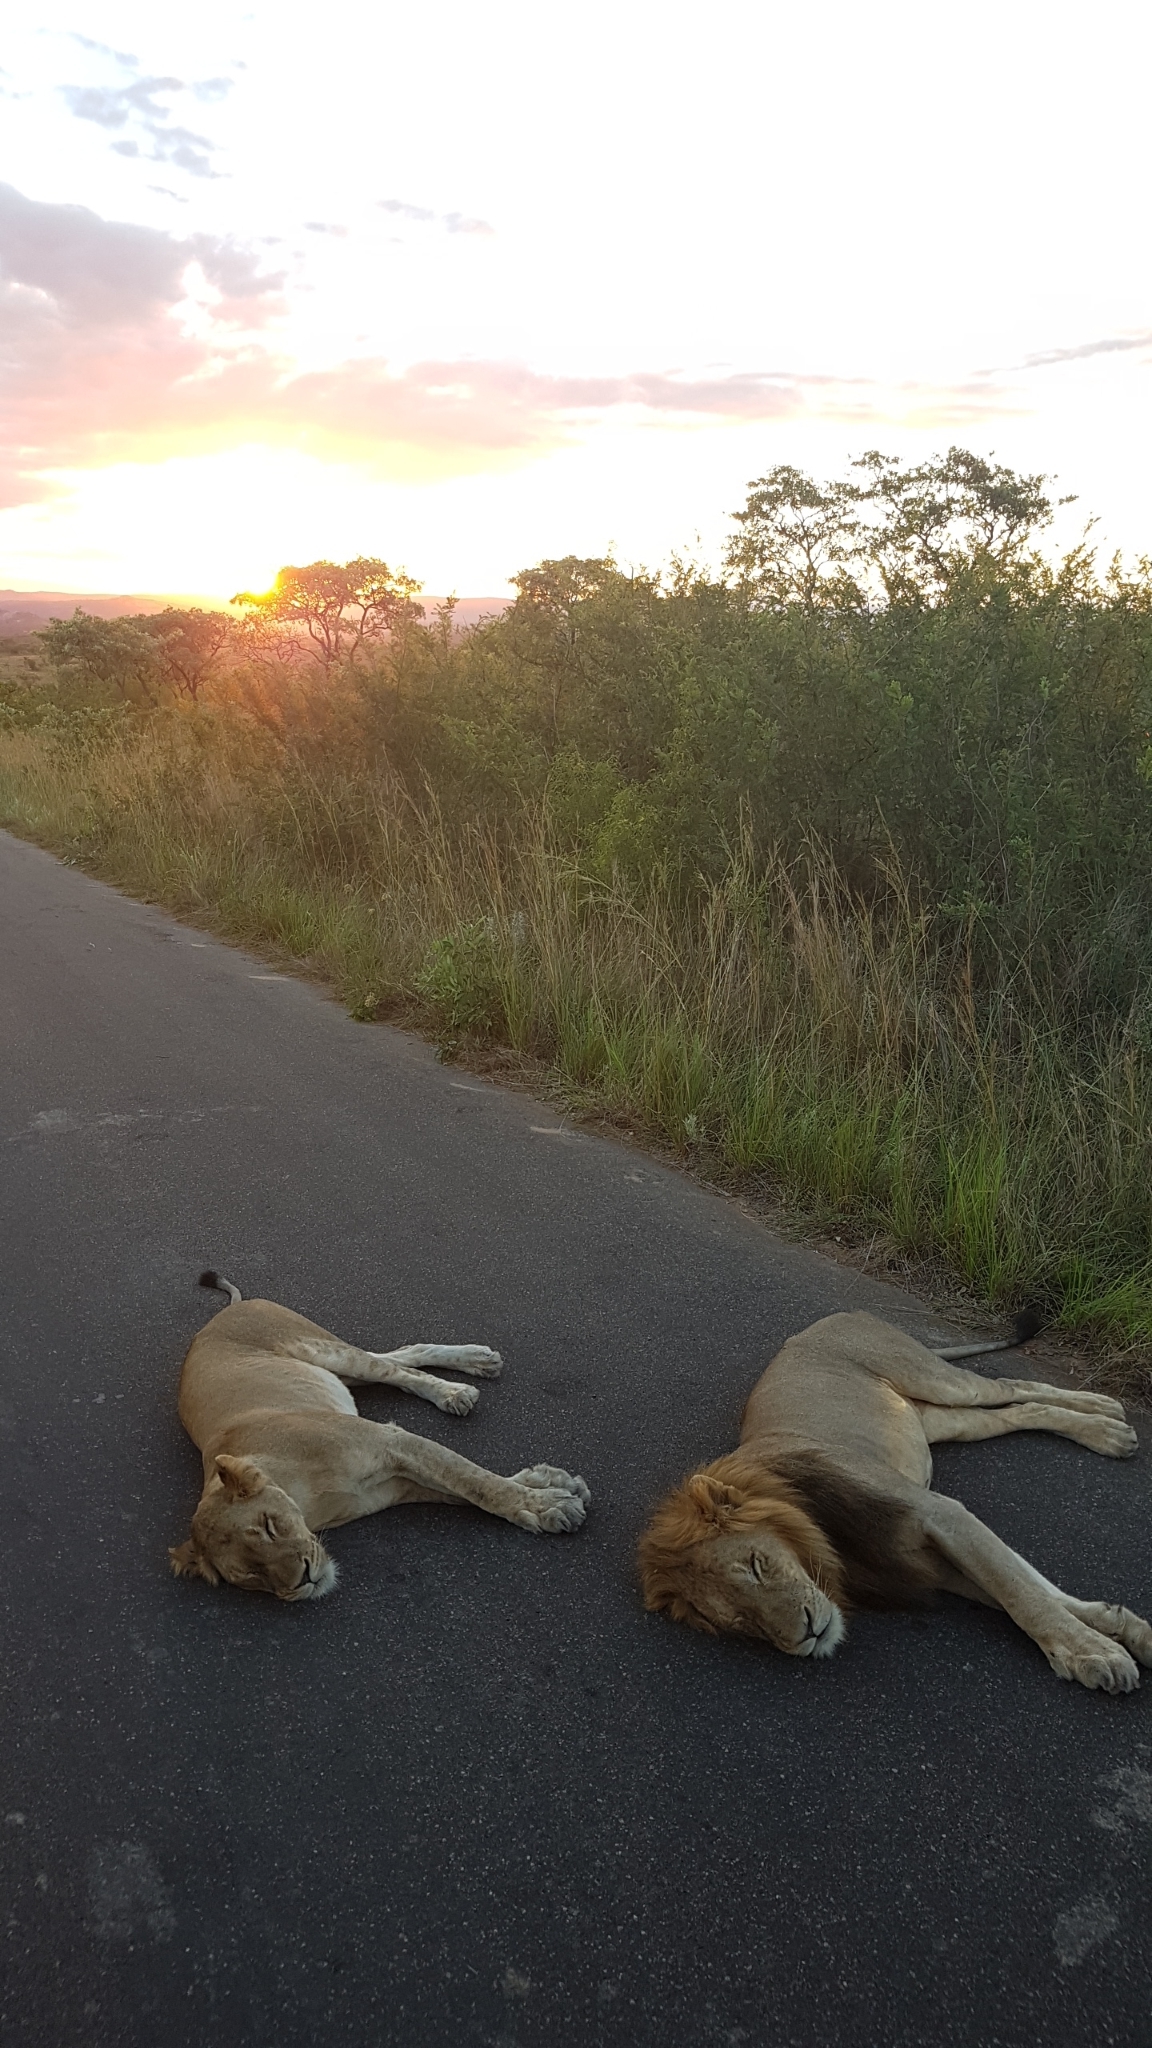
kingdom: Animalia
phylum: Chordata
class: Mammalia
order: Carnivora
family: Felidae
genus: Panthera
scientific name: Panthera leo
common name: Lion
